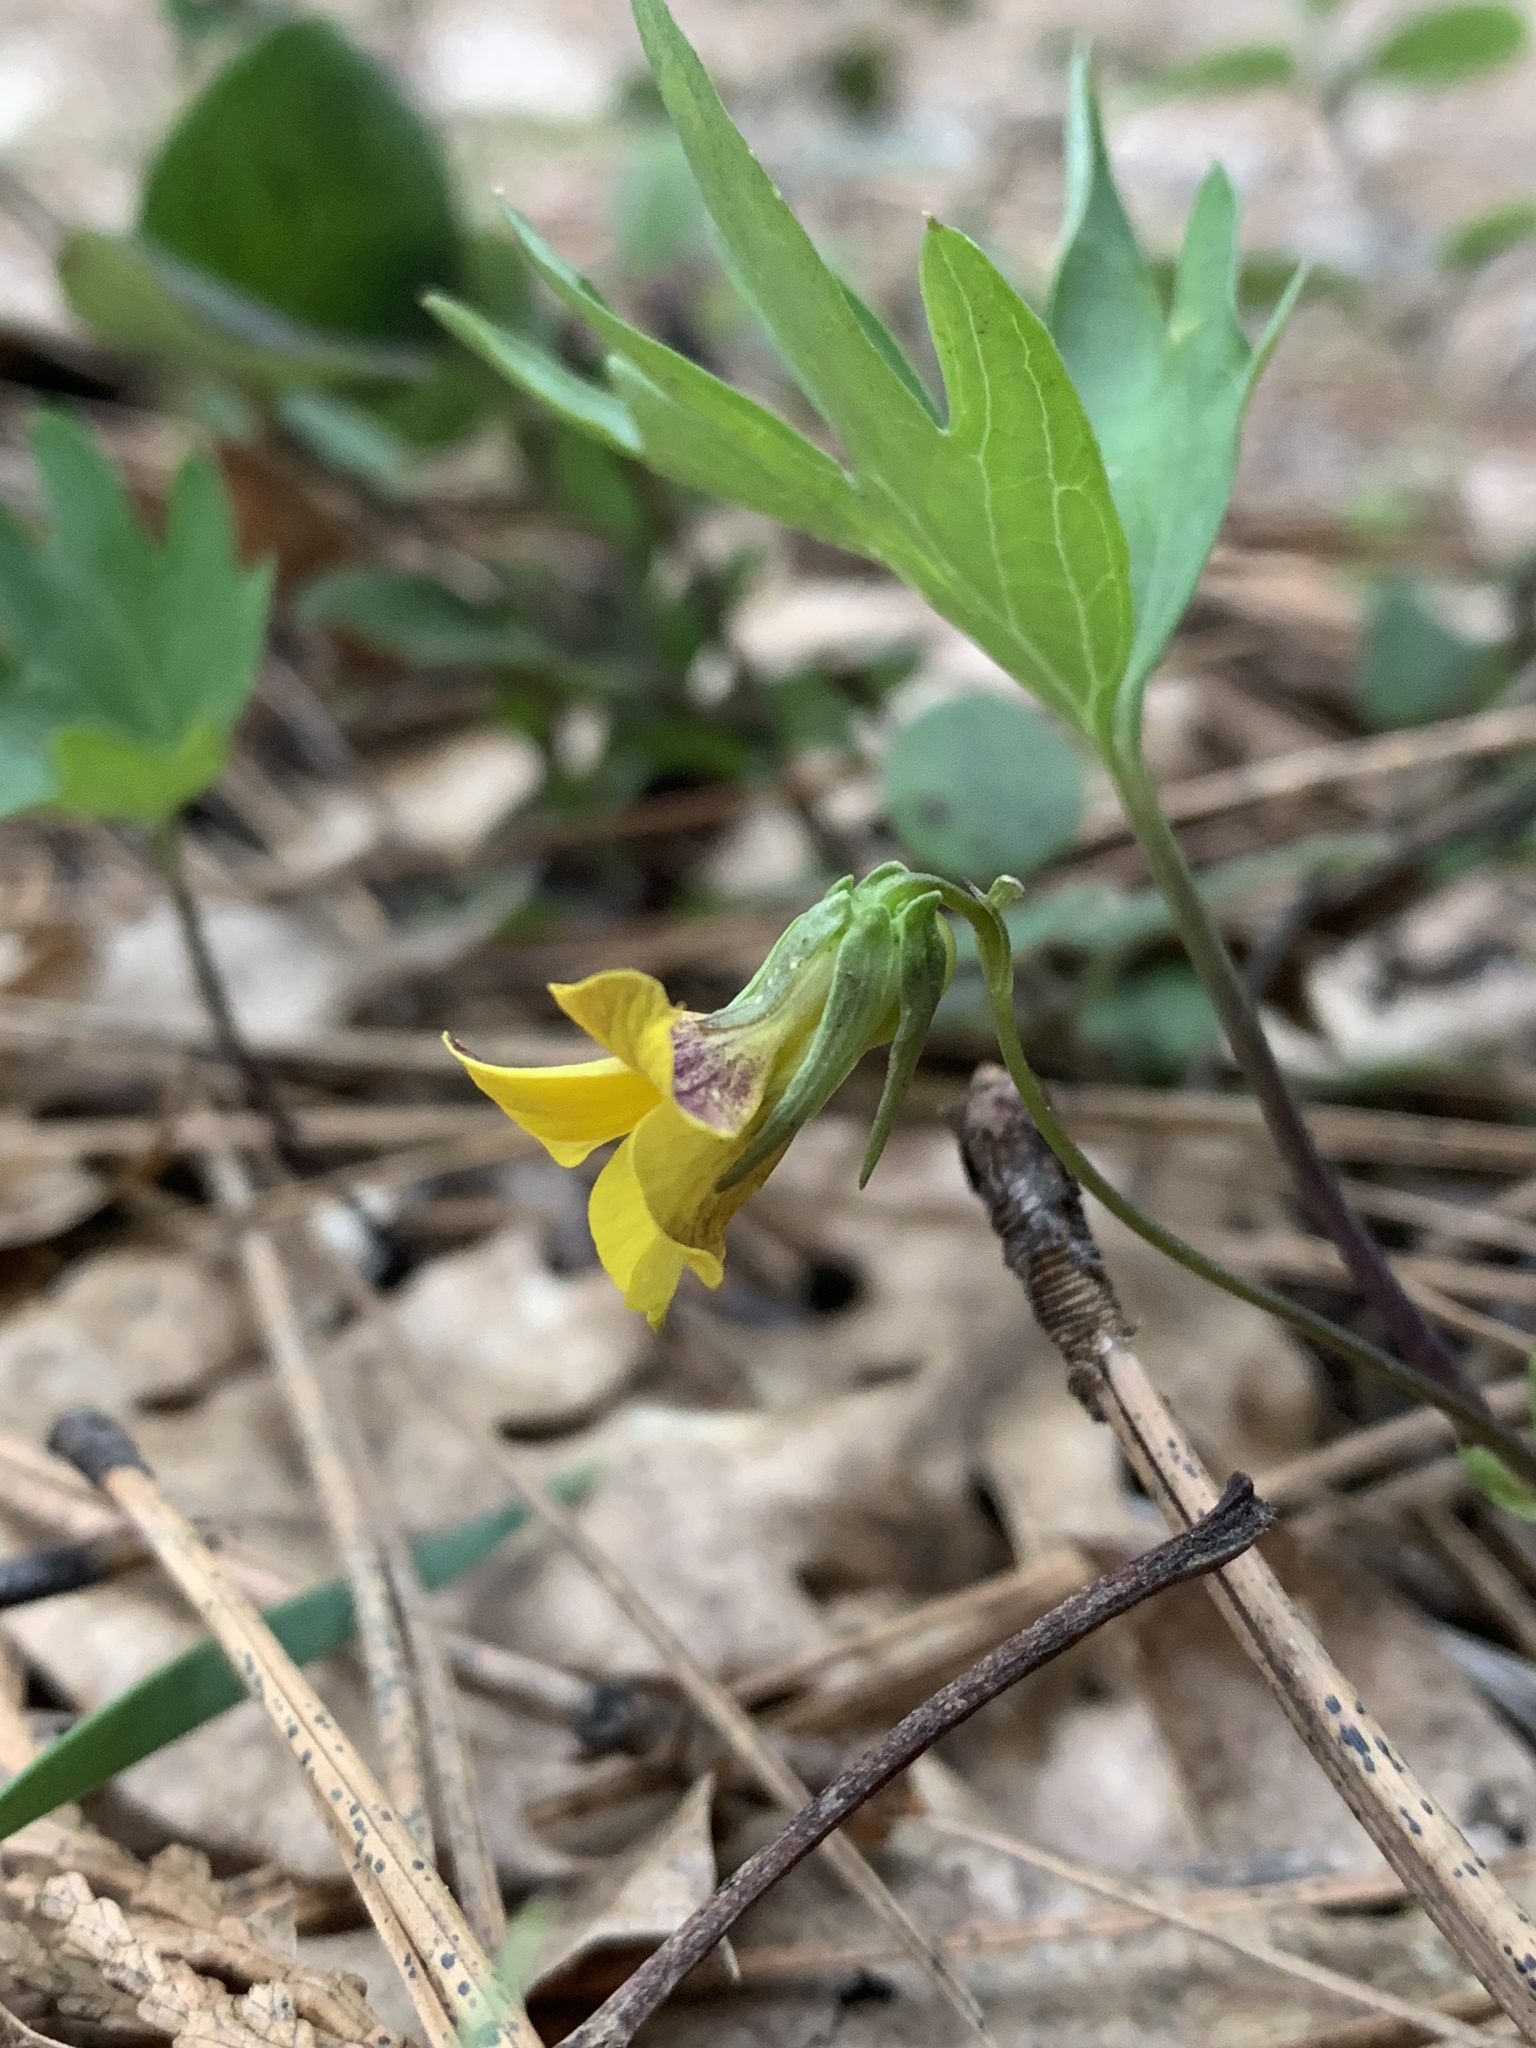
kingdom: Plantae
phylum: Tracheophyta
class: Magnoliopsida
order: Malpighiales
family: Violaceae
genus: Viola
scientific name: Viola lobata
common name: Pine violet
